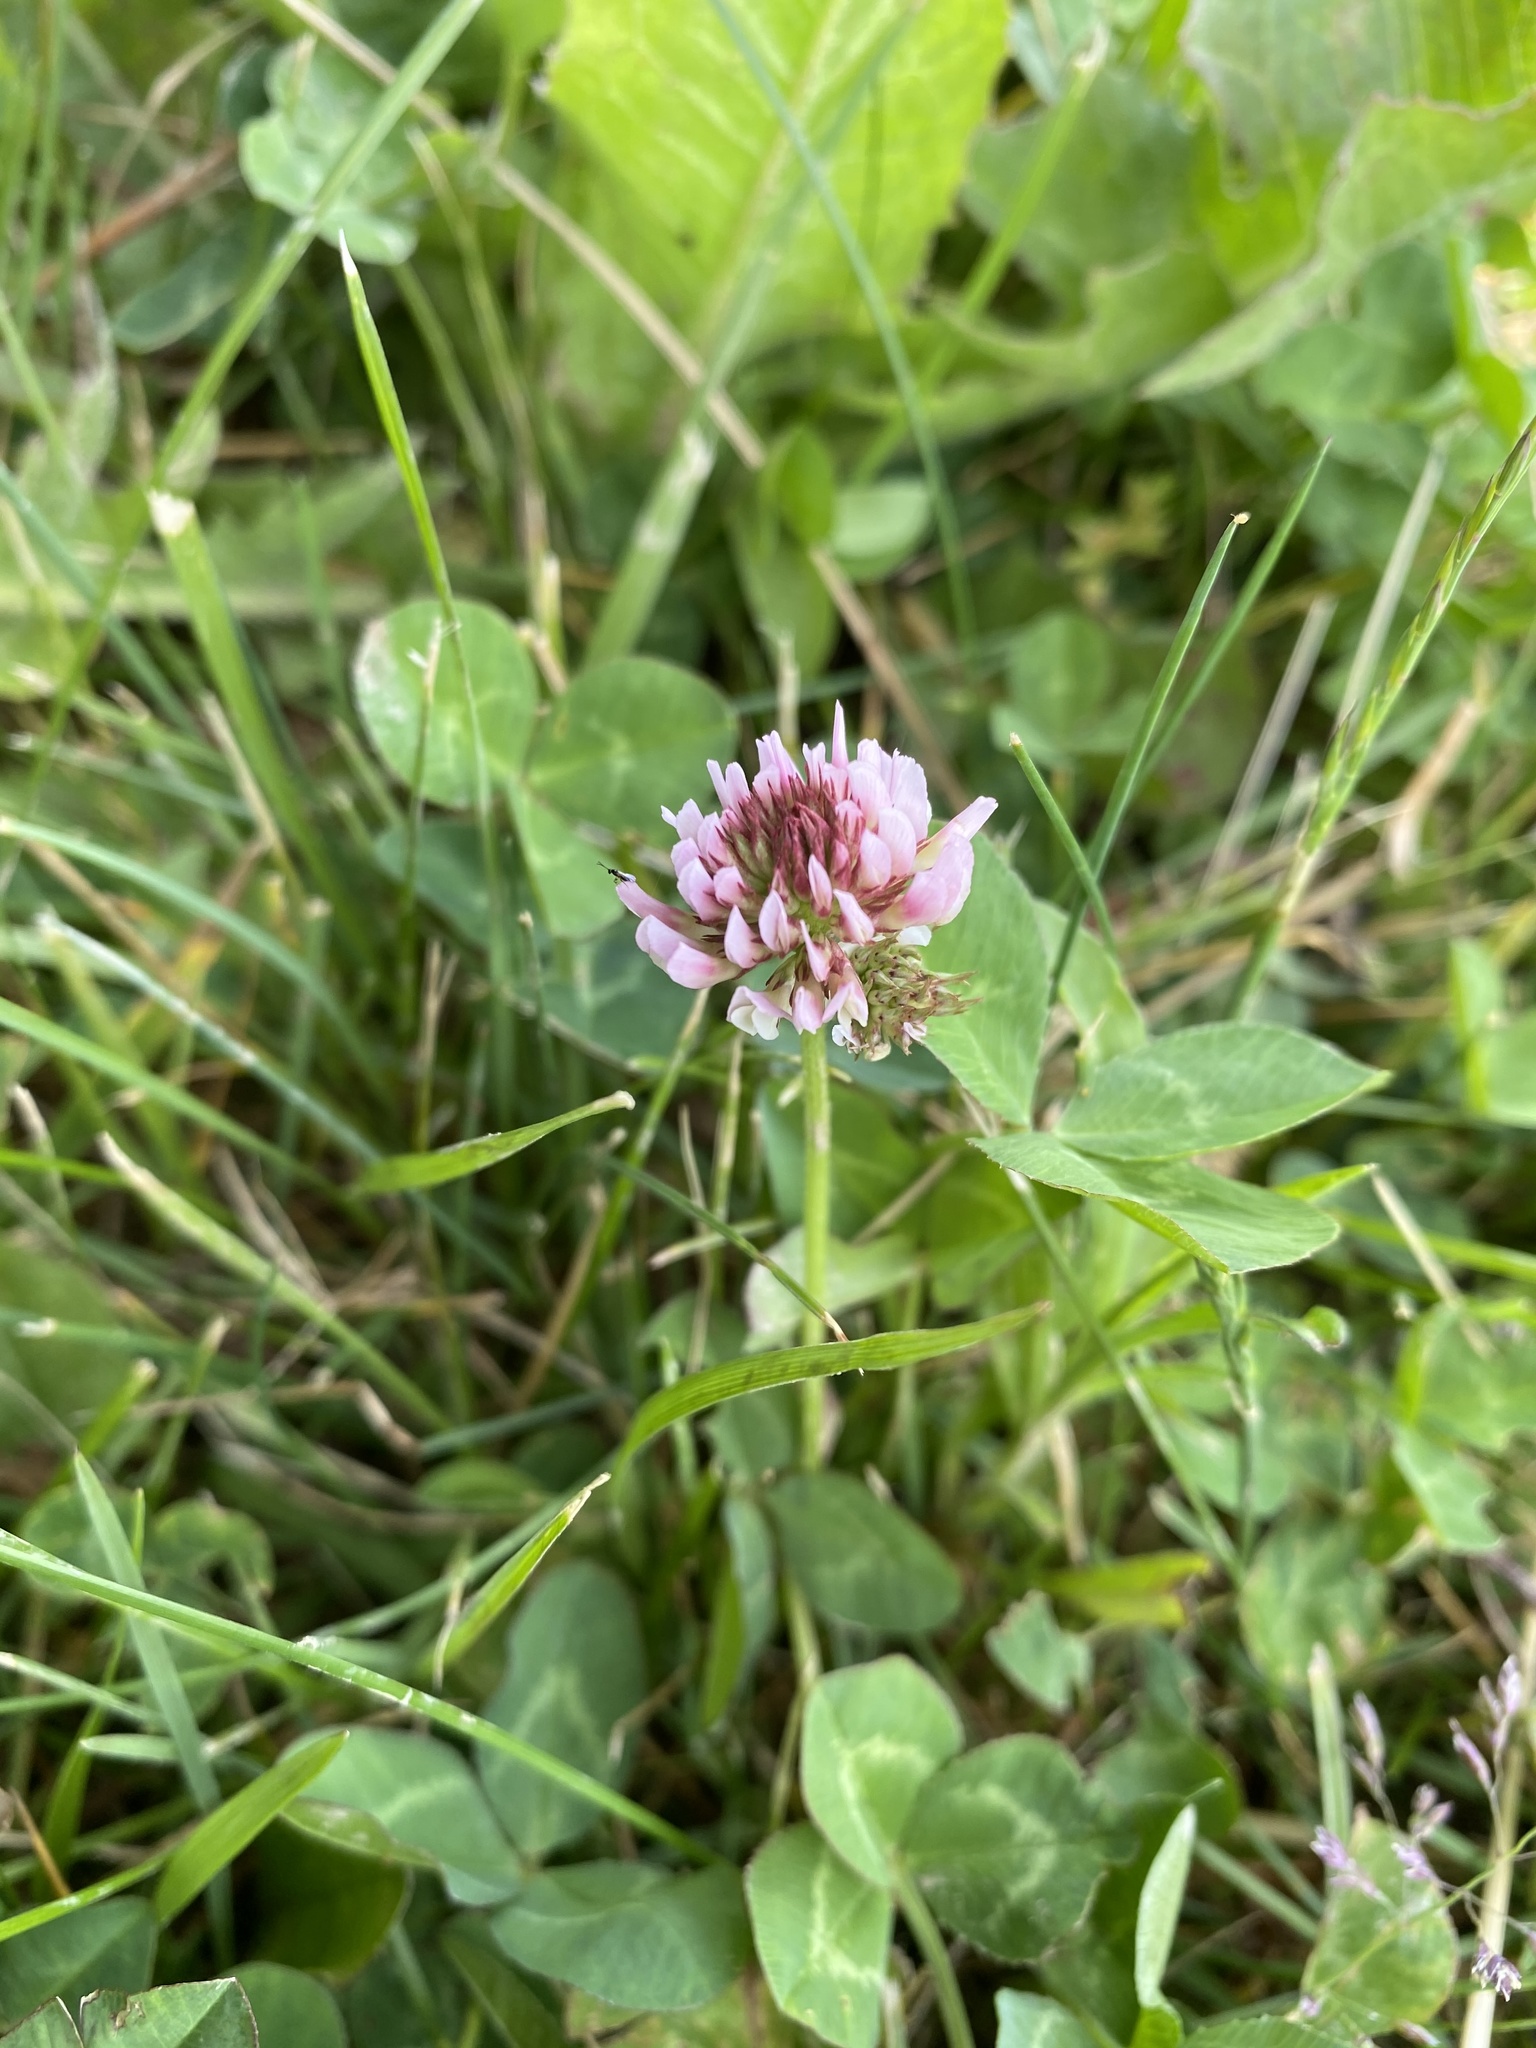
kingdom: Plantae
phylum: Tracheophyta
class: Magnoliopsida
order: Fabales
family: Fabaceae
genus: Trifolium
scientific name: Trifolium repens
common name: White clover
